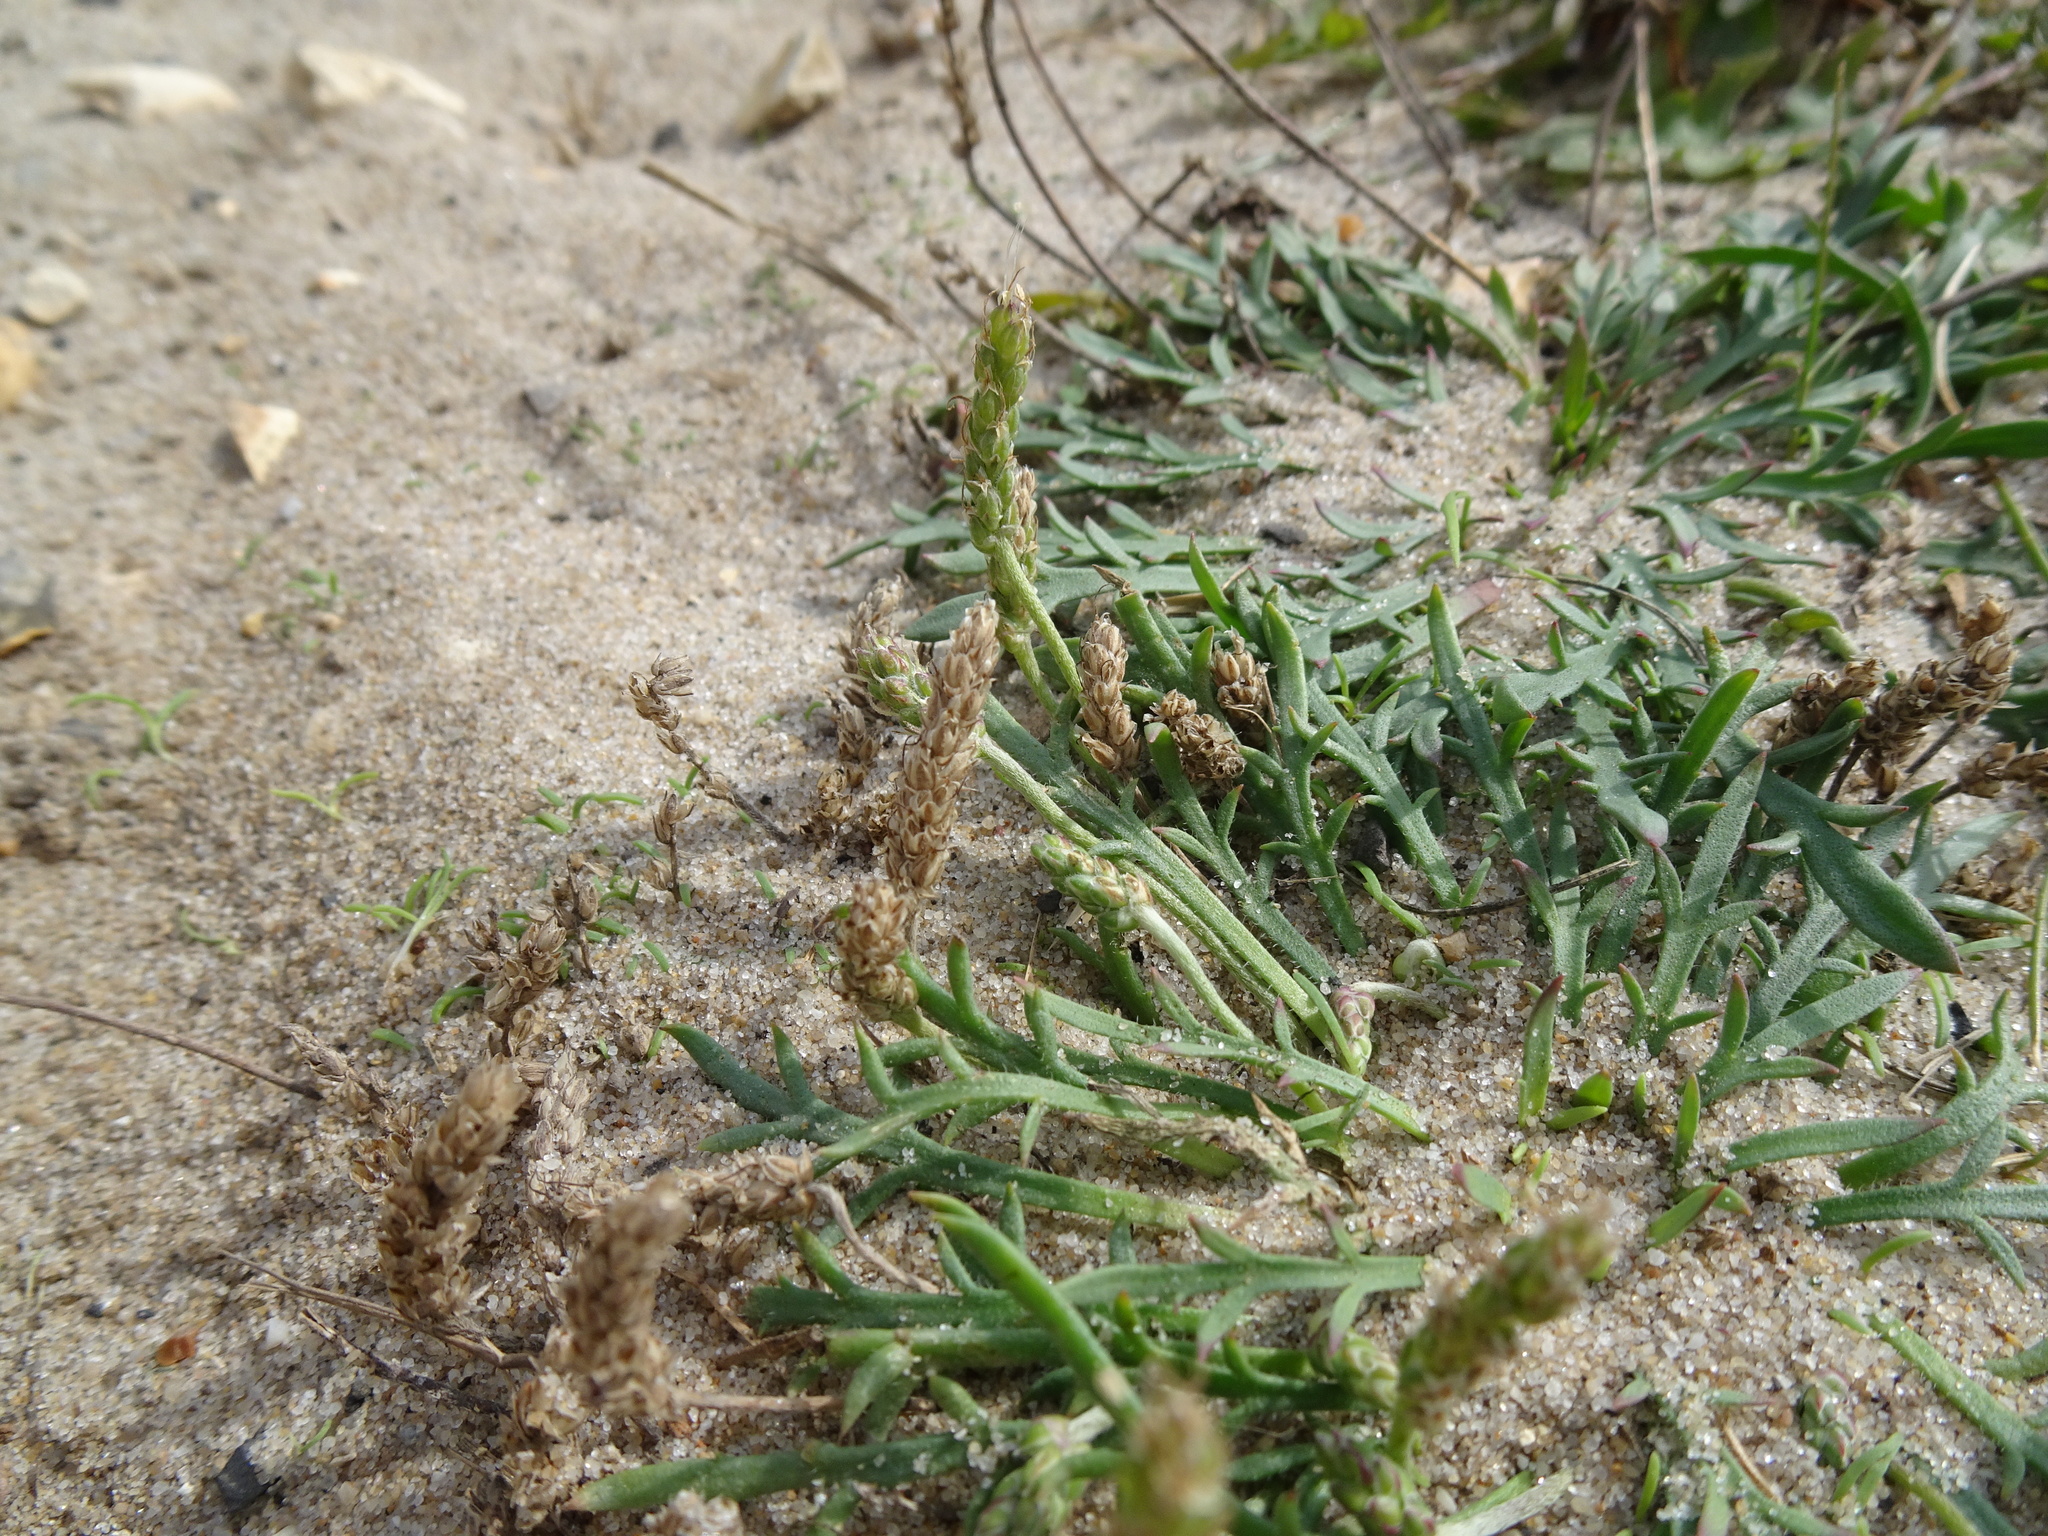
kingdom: Plantae
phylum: Tracheophyta
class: Magnoliopsida
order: Lamiales
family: Plantaginaceae
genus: Plantago
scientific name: Plantago coronopus
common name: Buck's-horn plantain
